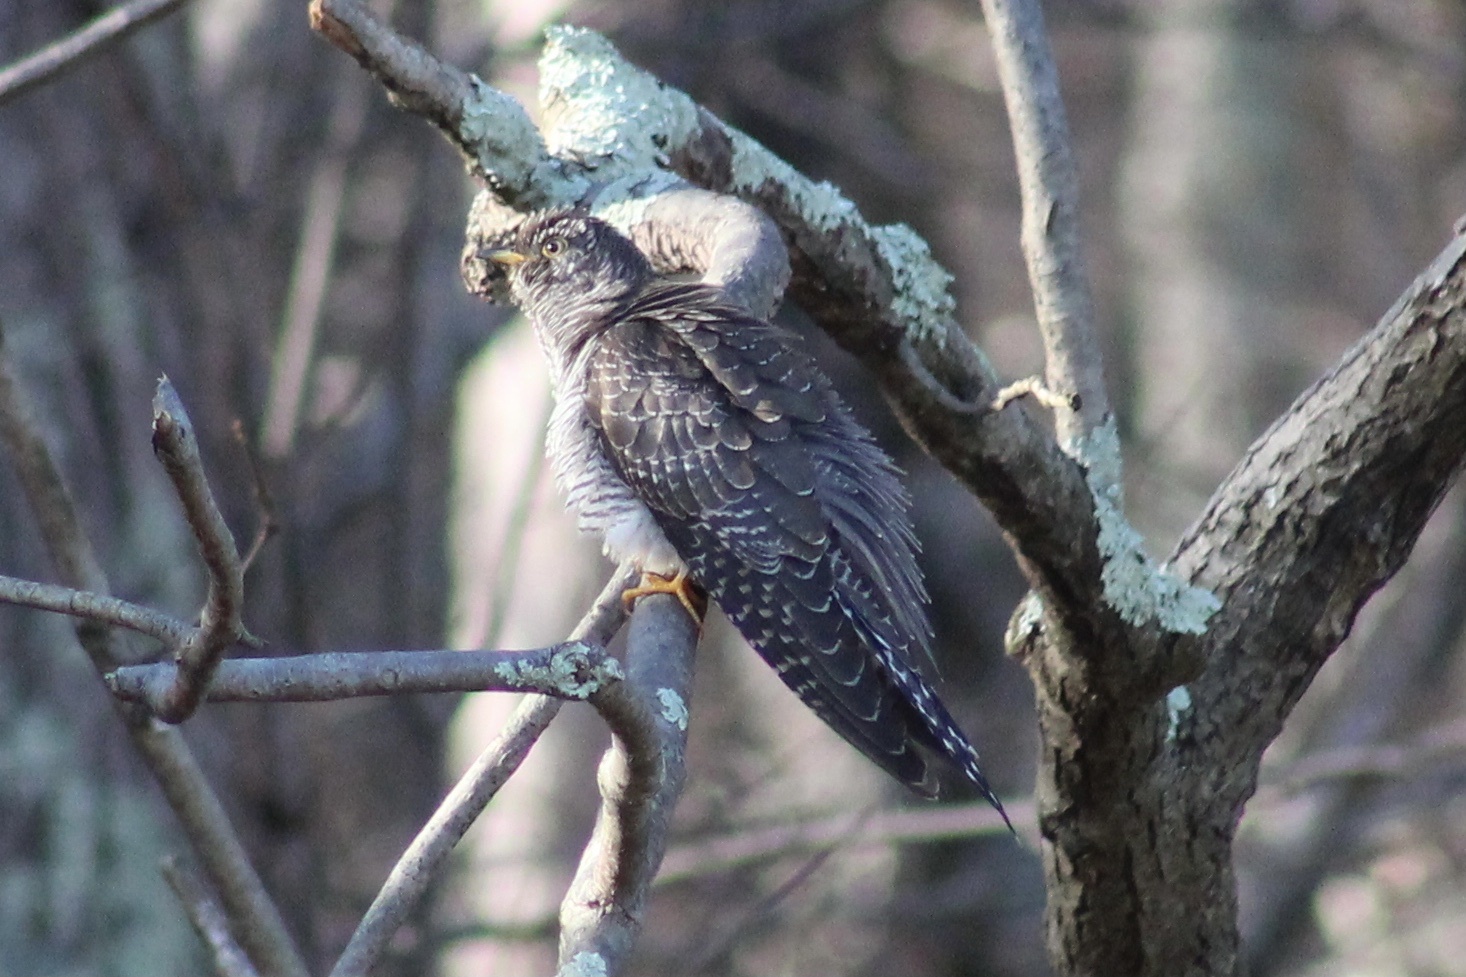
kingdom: Animalia
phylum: Chordata
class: Aves
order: Cuculiformes
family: Cuculidae
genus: Cuculus
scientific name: Cuculus canorus
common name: Common cuckoo
